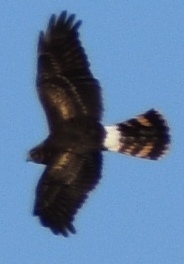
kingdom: Animalia
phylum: Chordata
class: Aves
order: Accipitriformes
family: Accipitridae
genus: Circus
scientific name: Circus cyaneus
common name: Hen harrier
